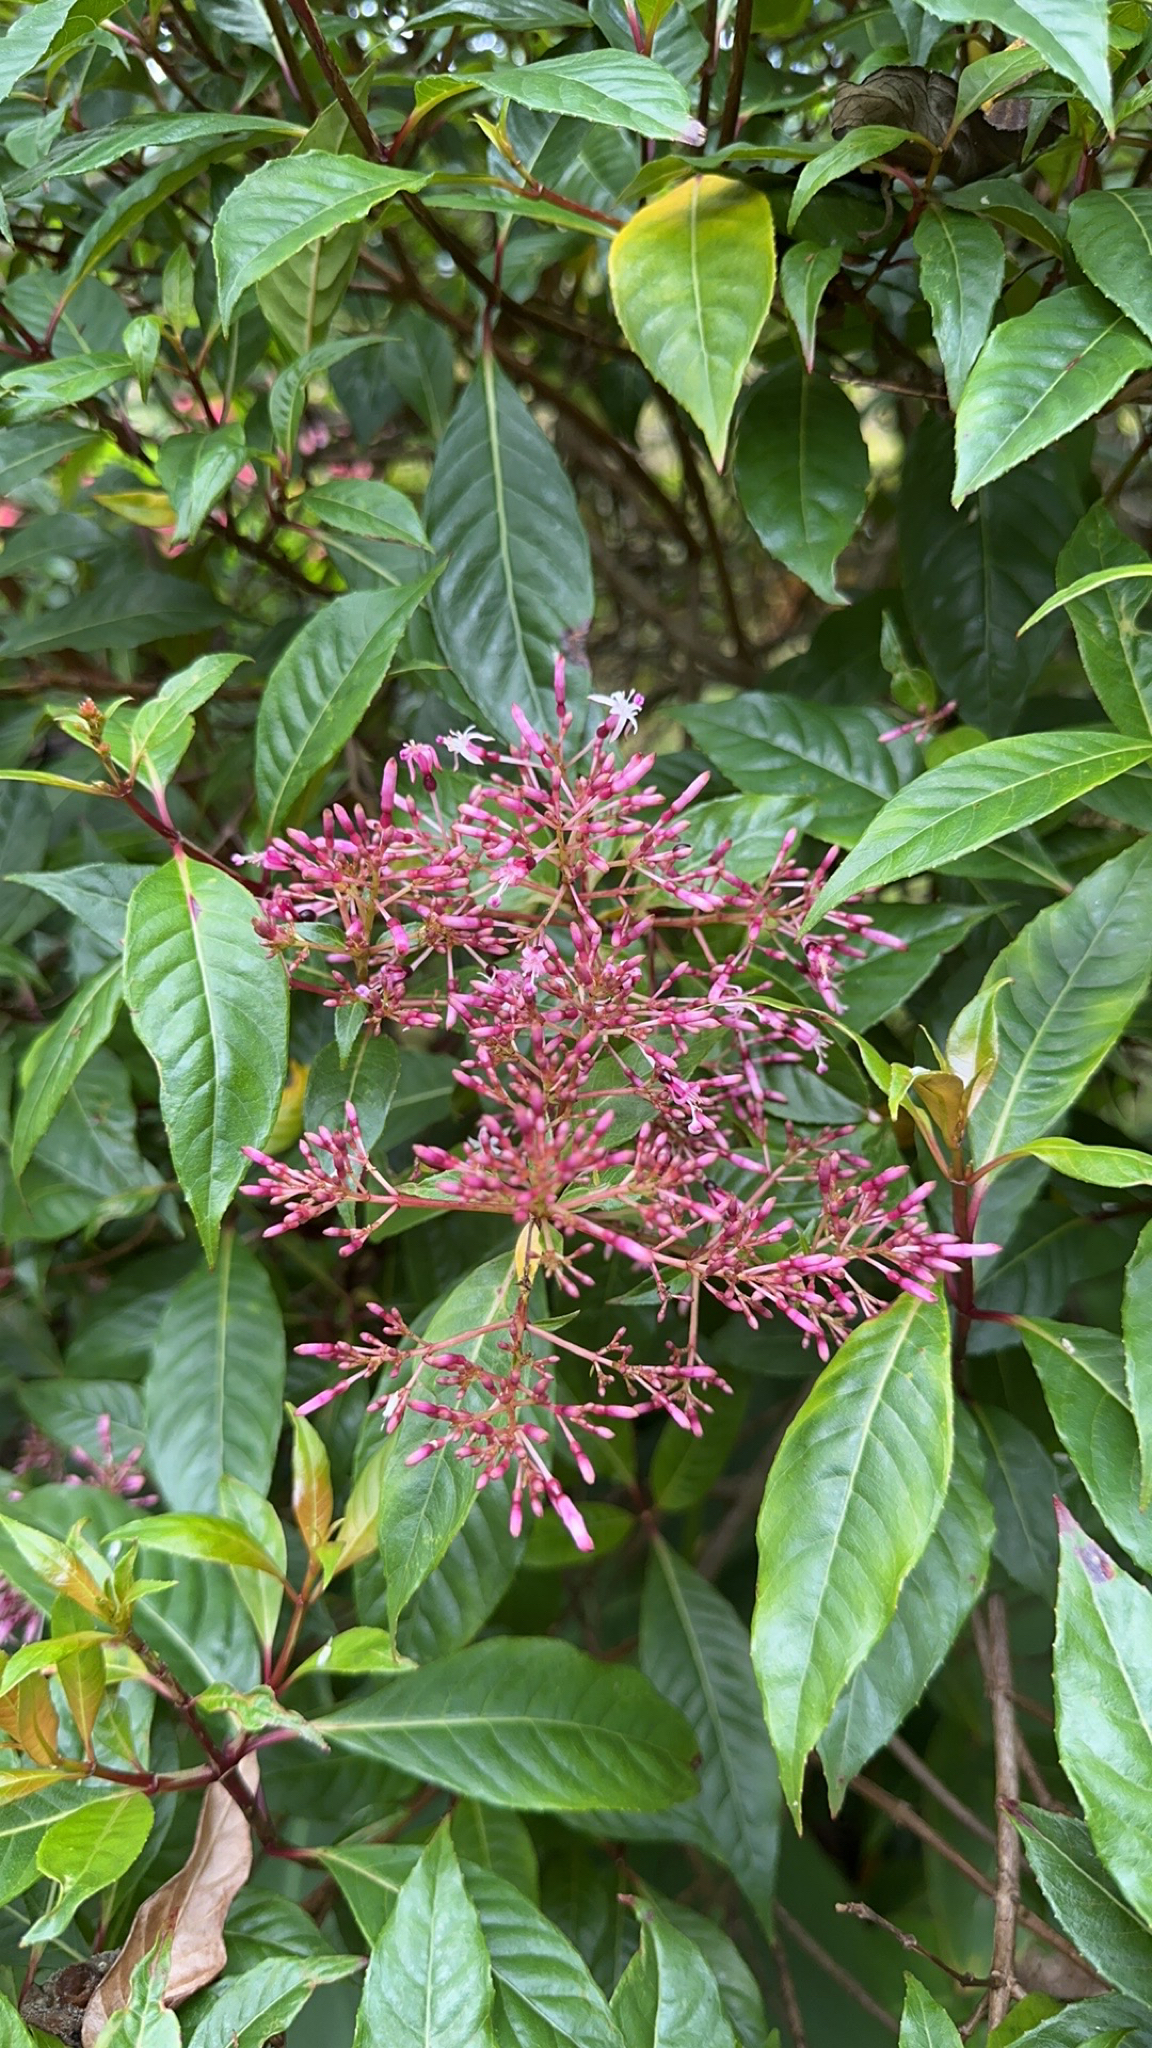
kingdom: Plantae
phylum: Tracheophyta
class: Magnoliopsida
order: Myrtales
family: Onagraceae
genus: Fuchsia
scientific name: Fuchsia paniculata
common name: Shrubby fuchsia
